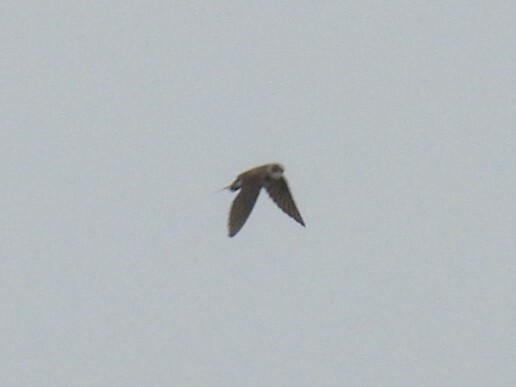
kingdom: Animalia
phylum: Chordata
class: Aves
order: Passeriformes
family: Hirundinidae
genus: Riparia
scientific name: Riparia riparia
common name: Sand martin
